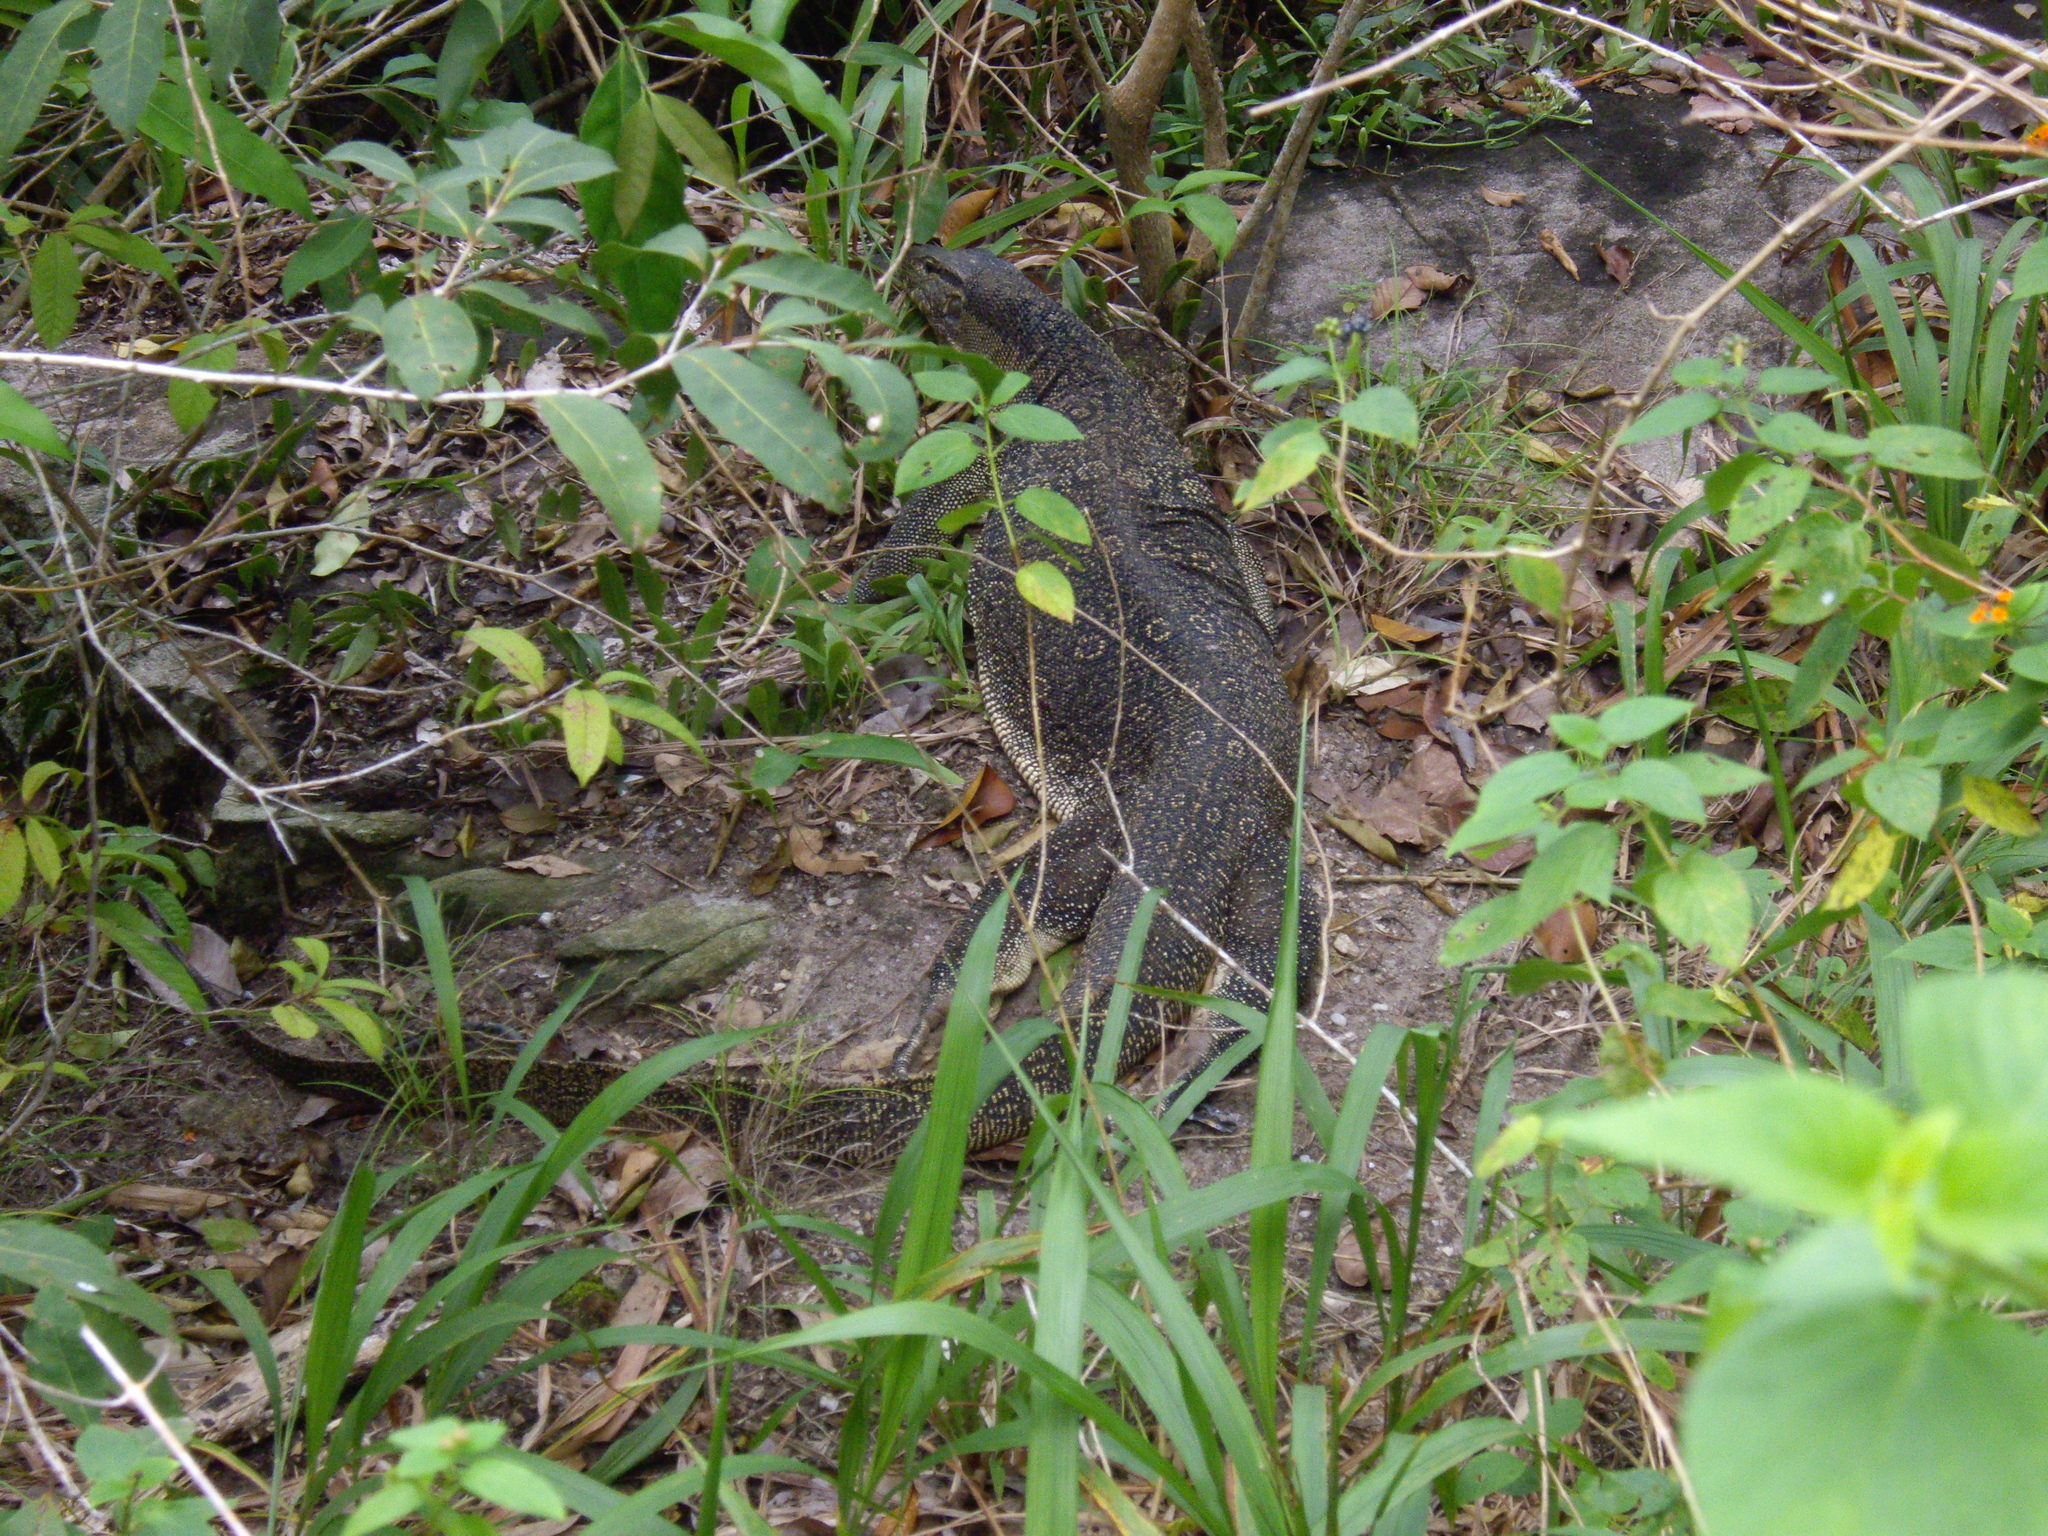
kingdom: Animalia
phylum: Chordata
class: Squamata
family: Varanidae
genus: Varanus
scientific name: Varanus salvator
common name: Common water monitor
